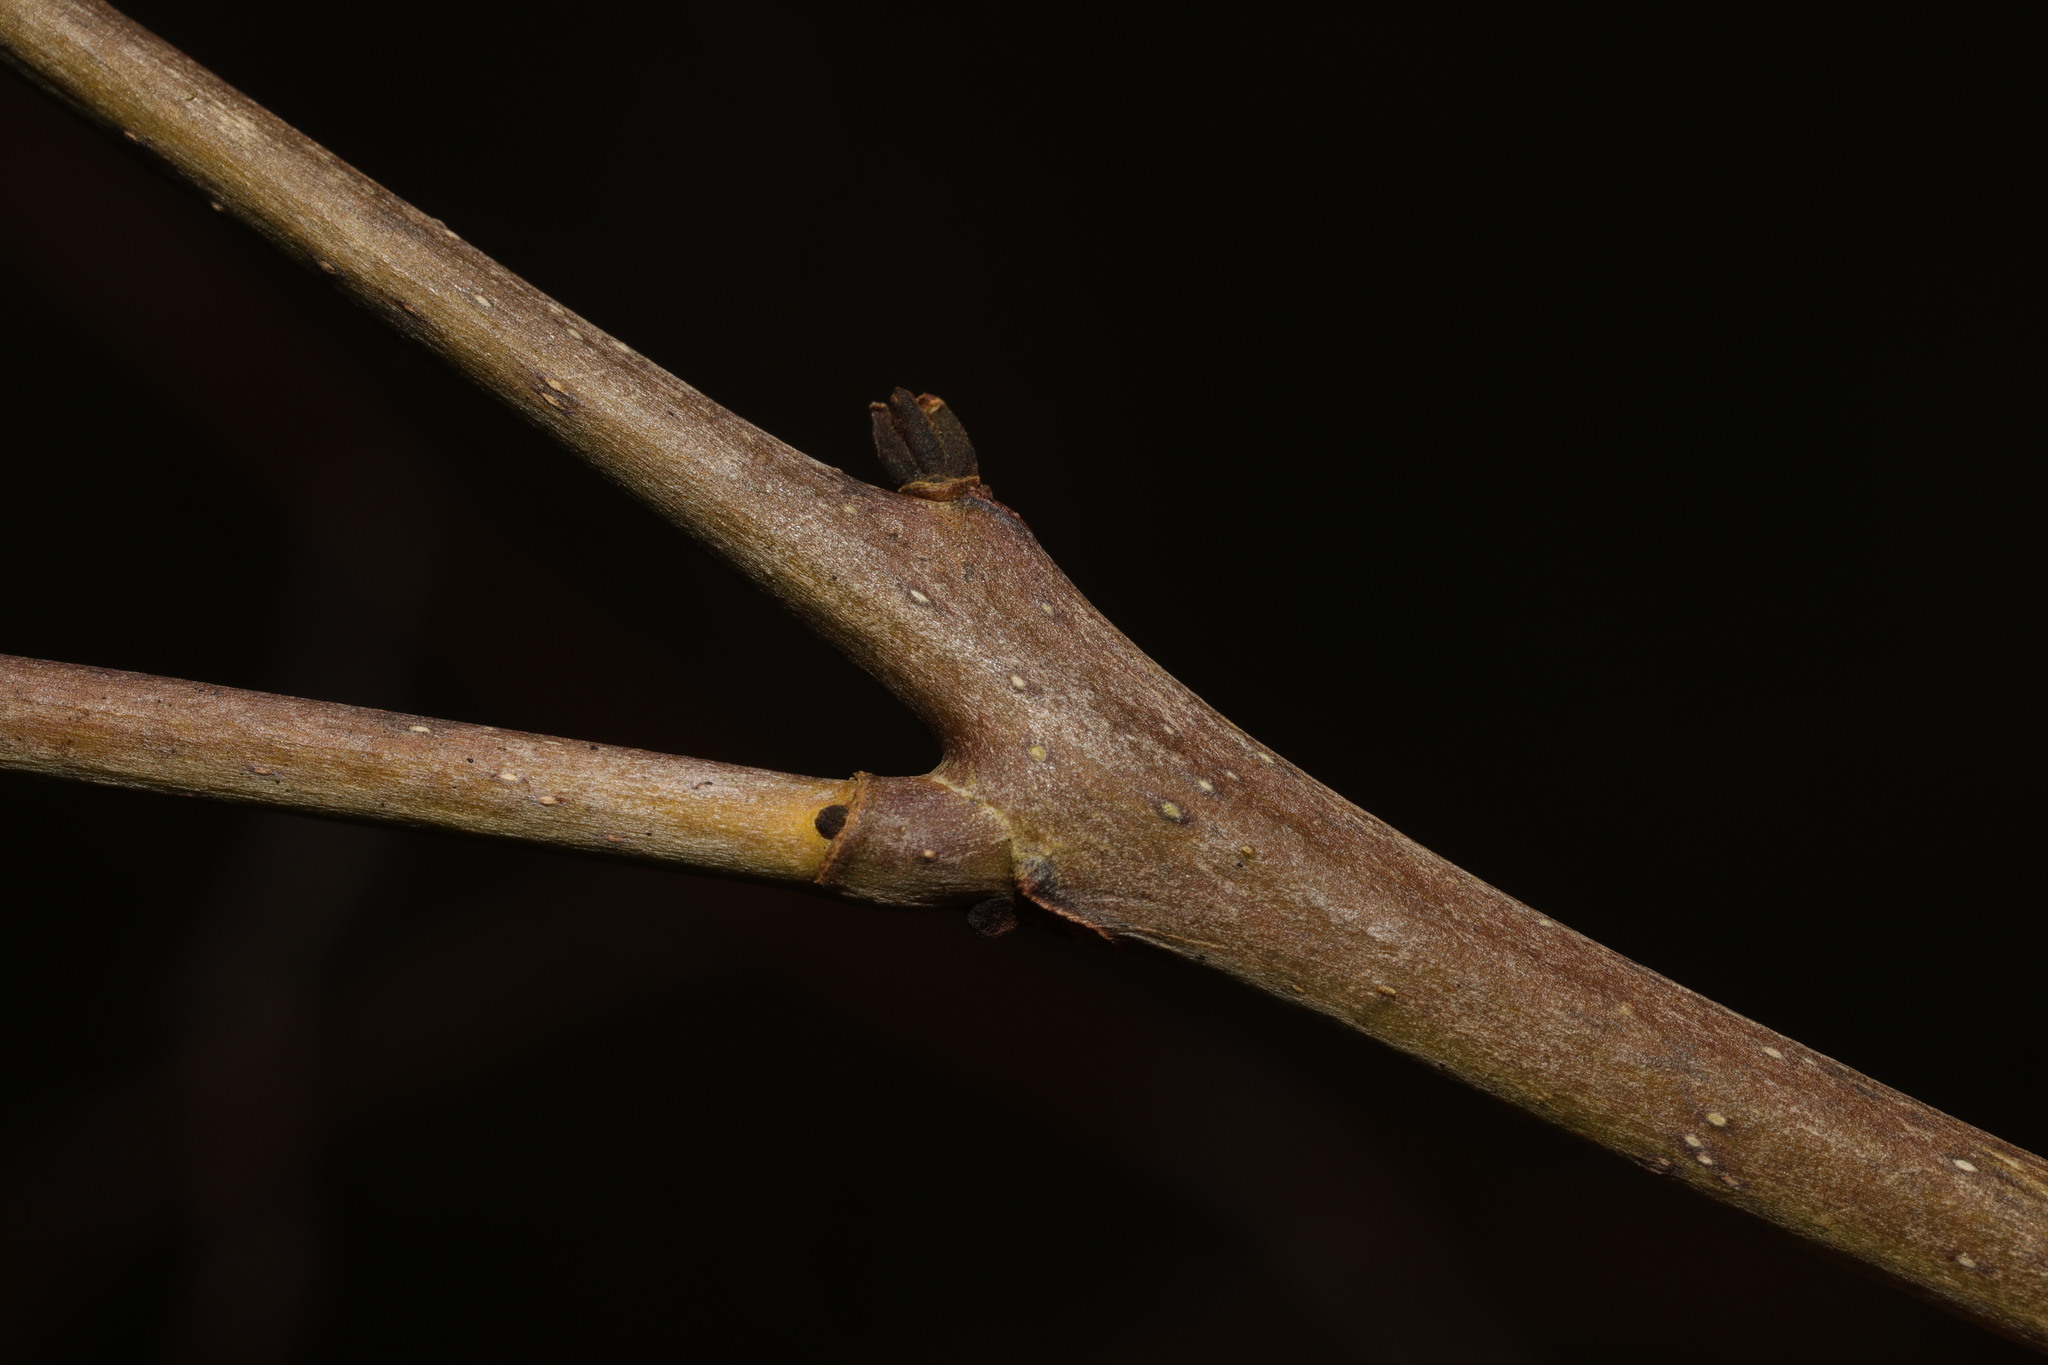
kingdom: Plantae
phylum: Tracheophyta
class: Magnoliopsida
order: Lamiales
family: Oleaceae
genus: Fraxinus
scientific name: Fraxinus excelsior
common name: European ash
